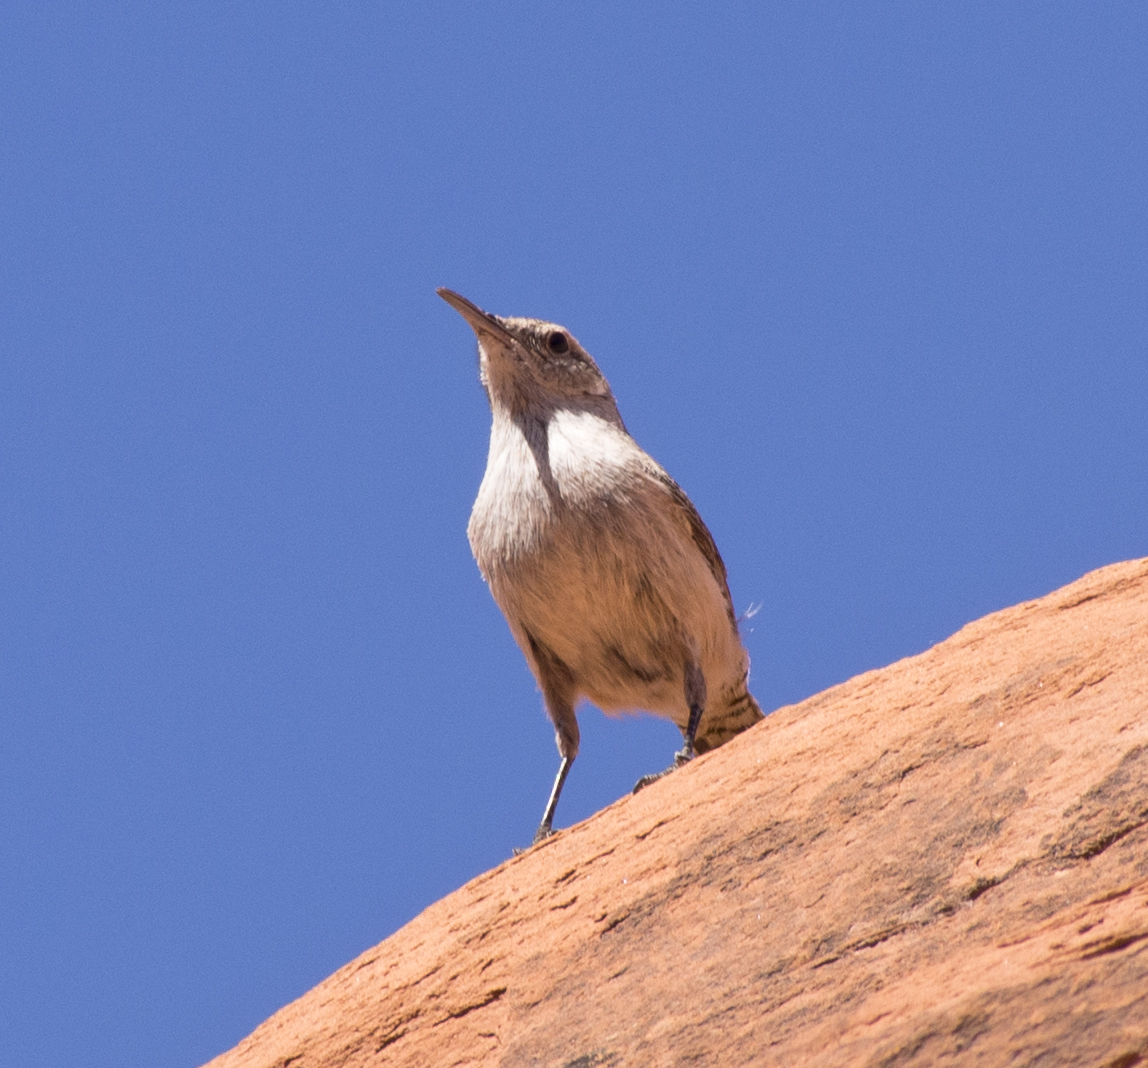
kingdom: Animalia
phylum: Chordata
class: Aves
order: Passeriformes
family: Troglodytidae
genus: Salpinctes
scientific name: Salpinctes obsoletus
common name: Rock wren
